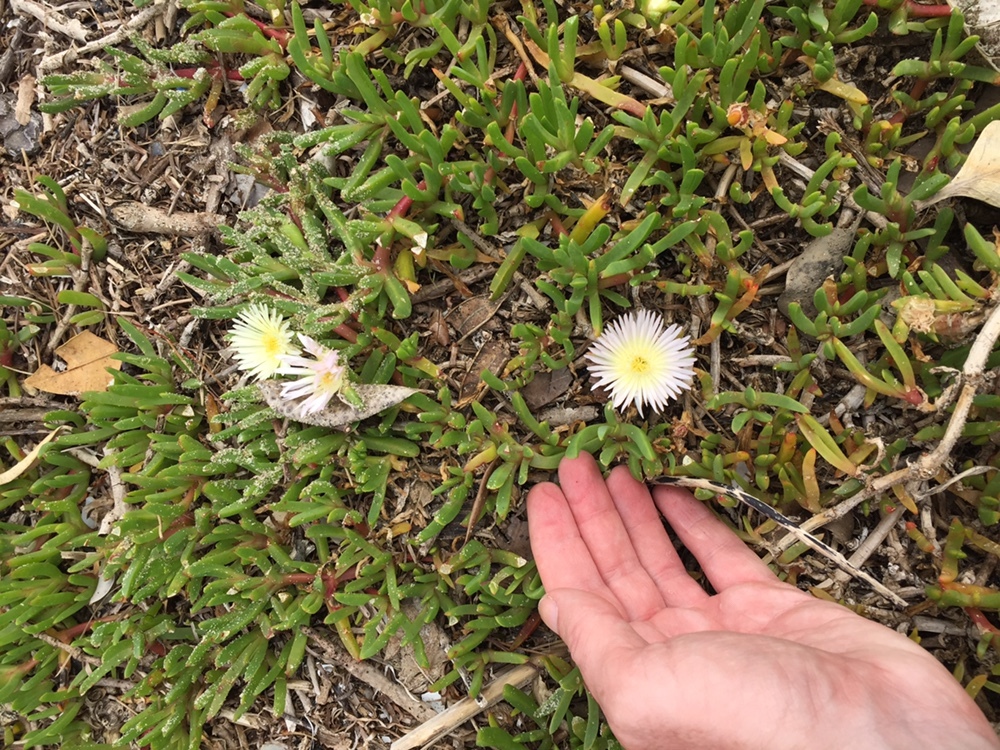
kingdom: Plantae
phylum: Tracheophyta
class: Magnoliopsida
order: Caryophyllales
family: Aizoaceae
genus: Disphyma
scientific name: Disphyma australe
